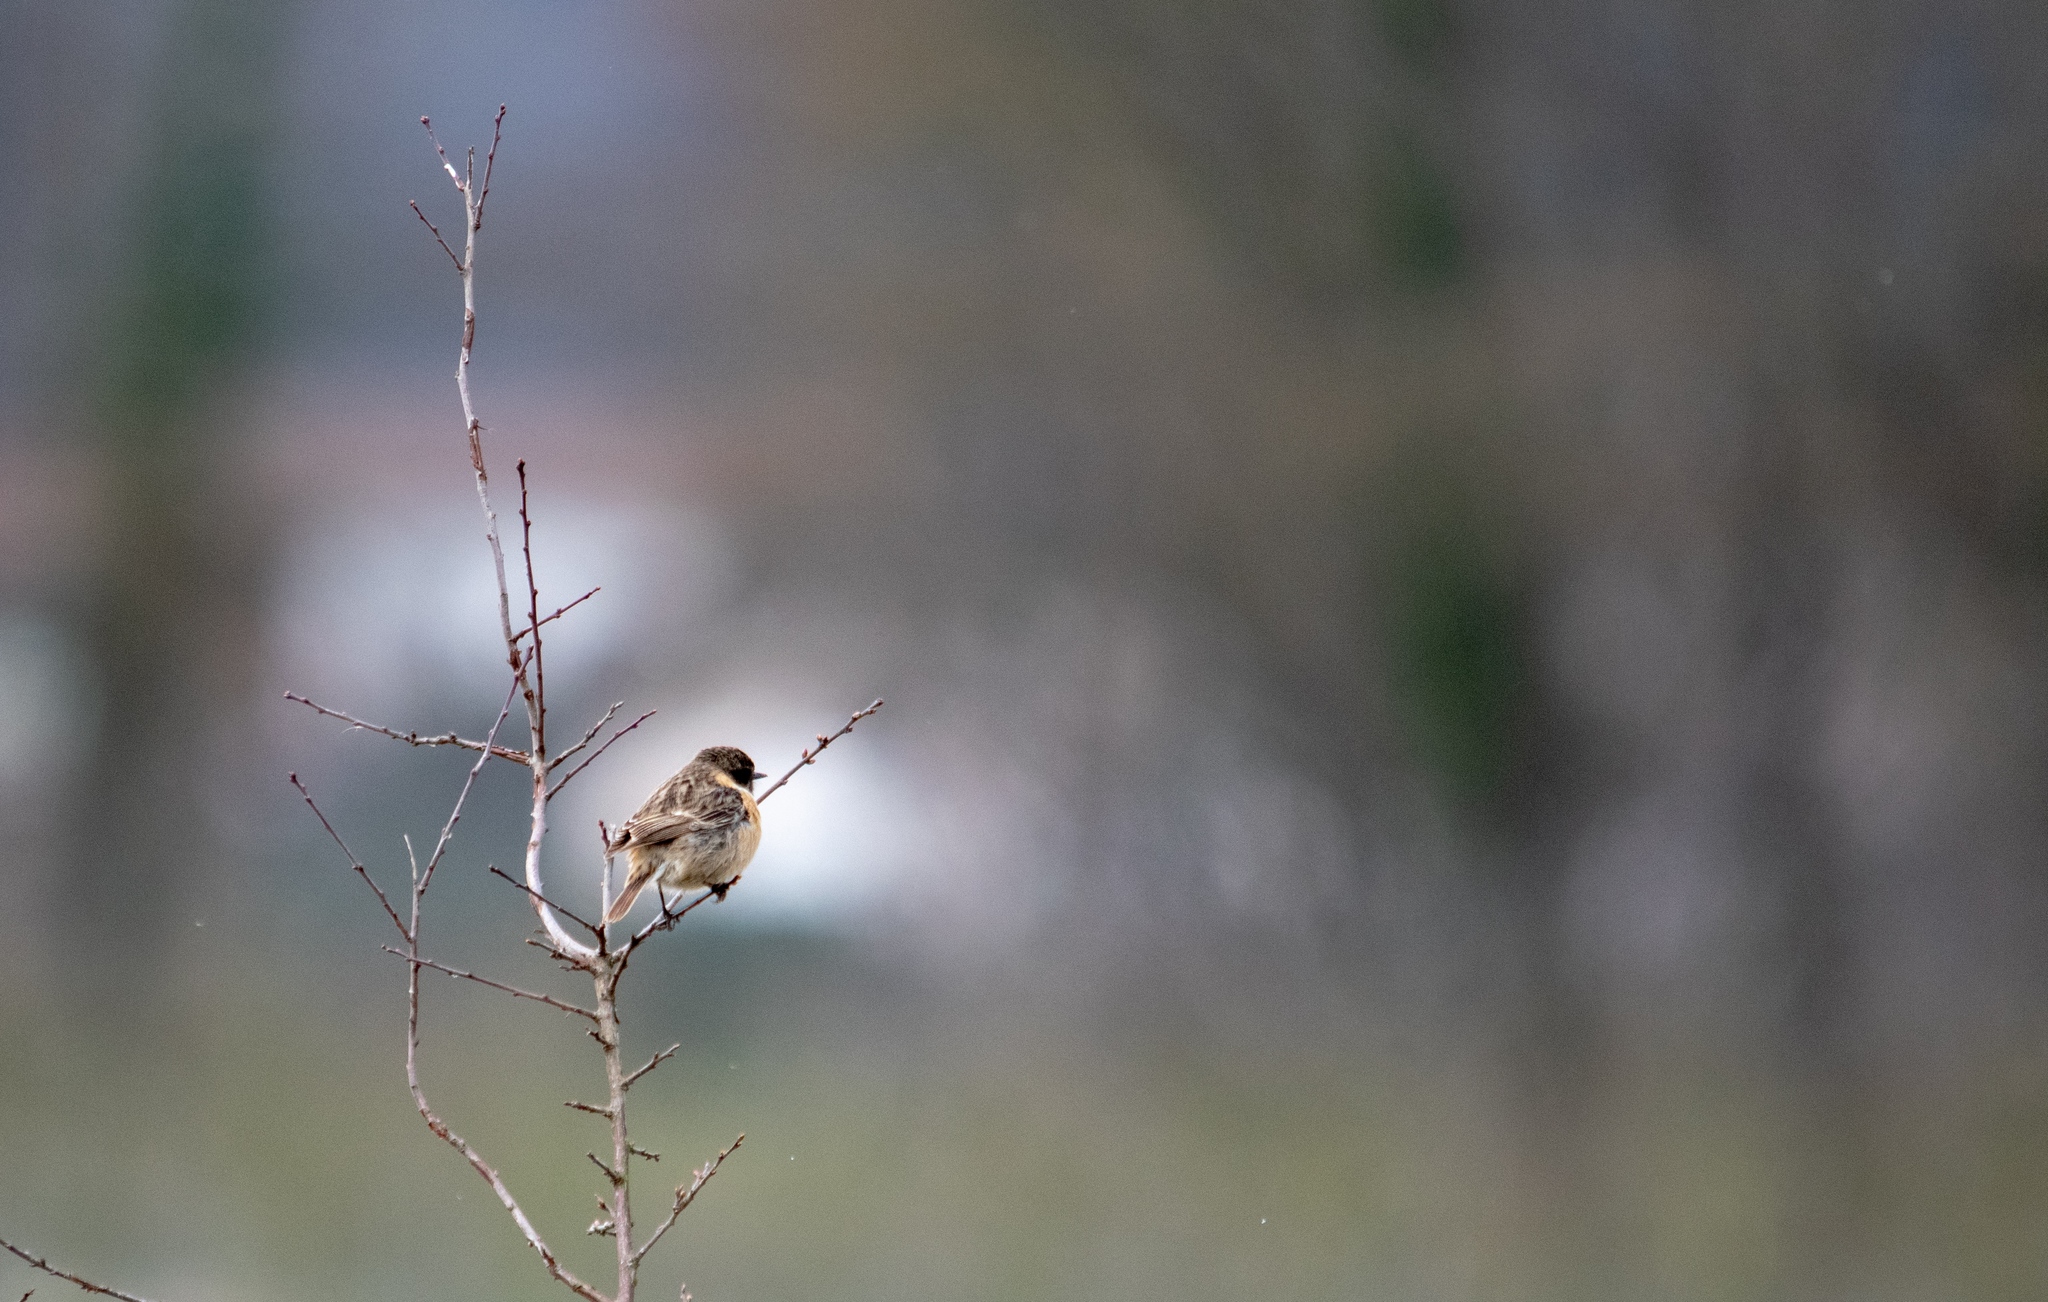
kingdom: Animalia
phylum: Chordata
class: Aves
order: Passeriformes
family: Muscicapidae
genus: Saxicola
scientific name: Saxicola rubicola
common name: European stonechat
